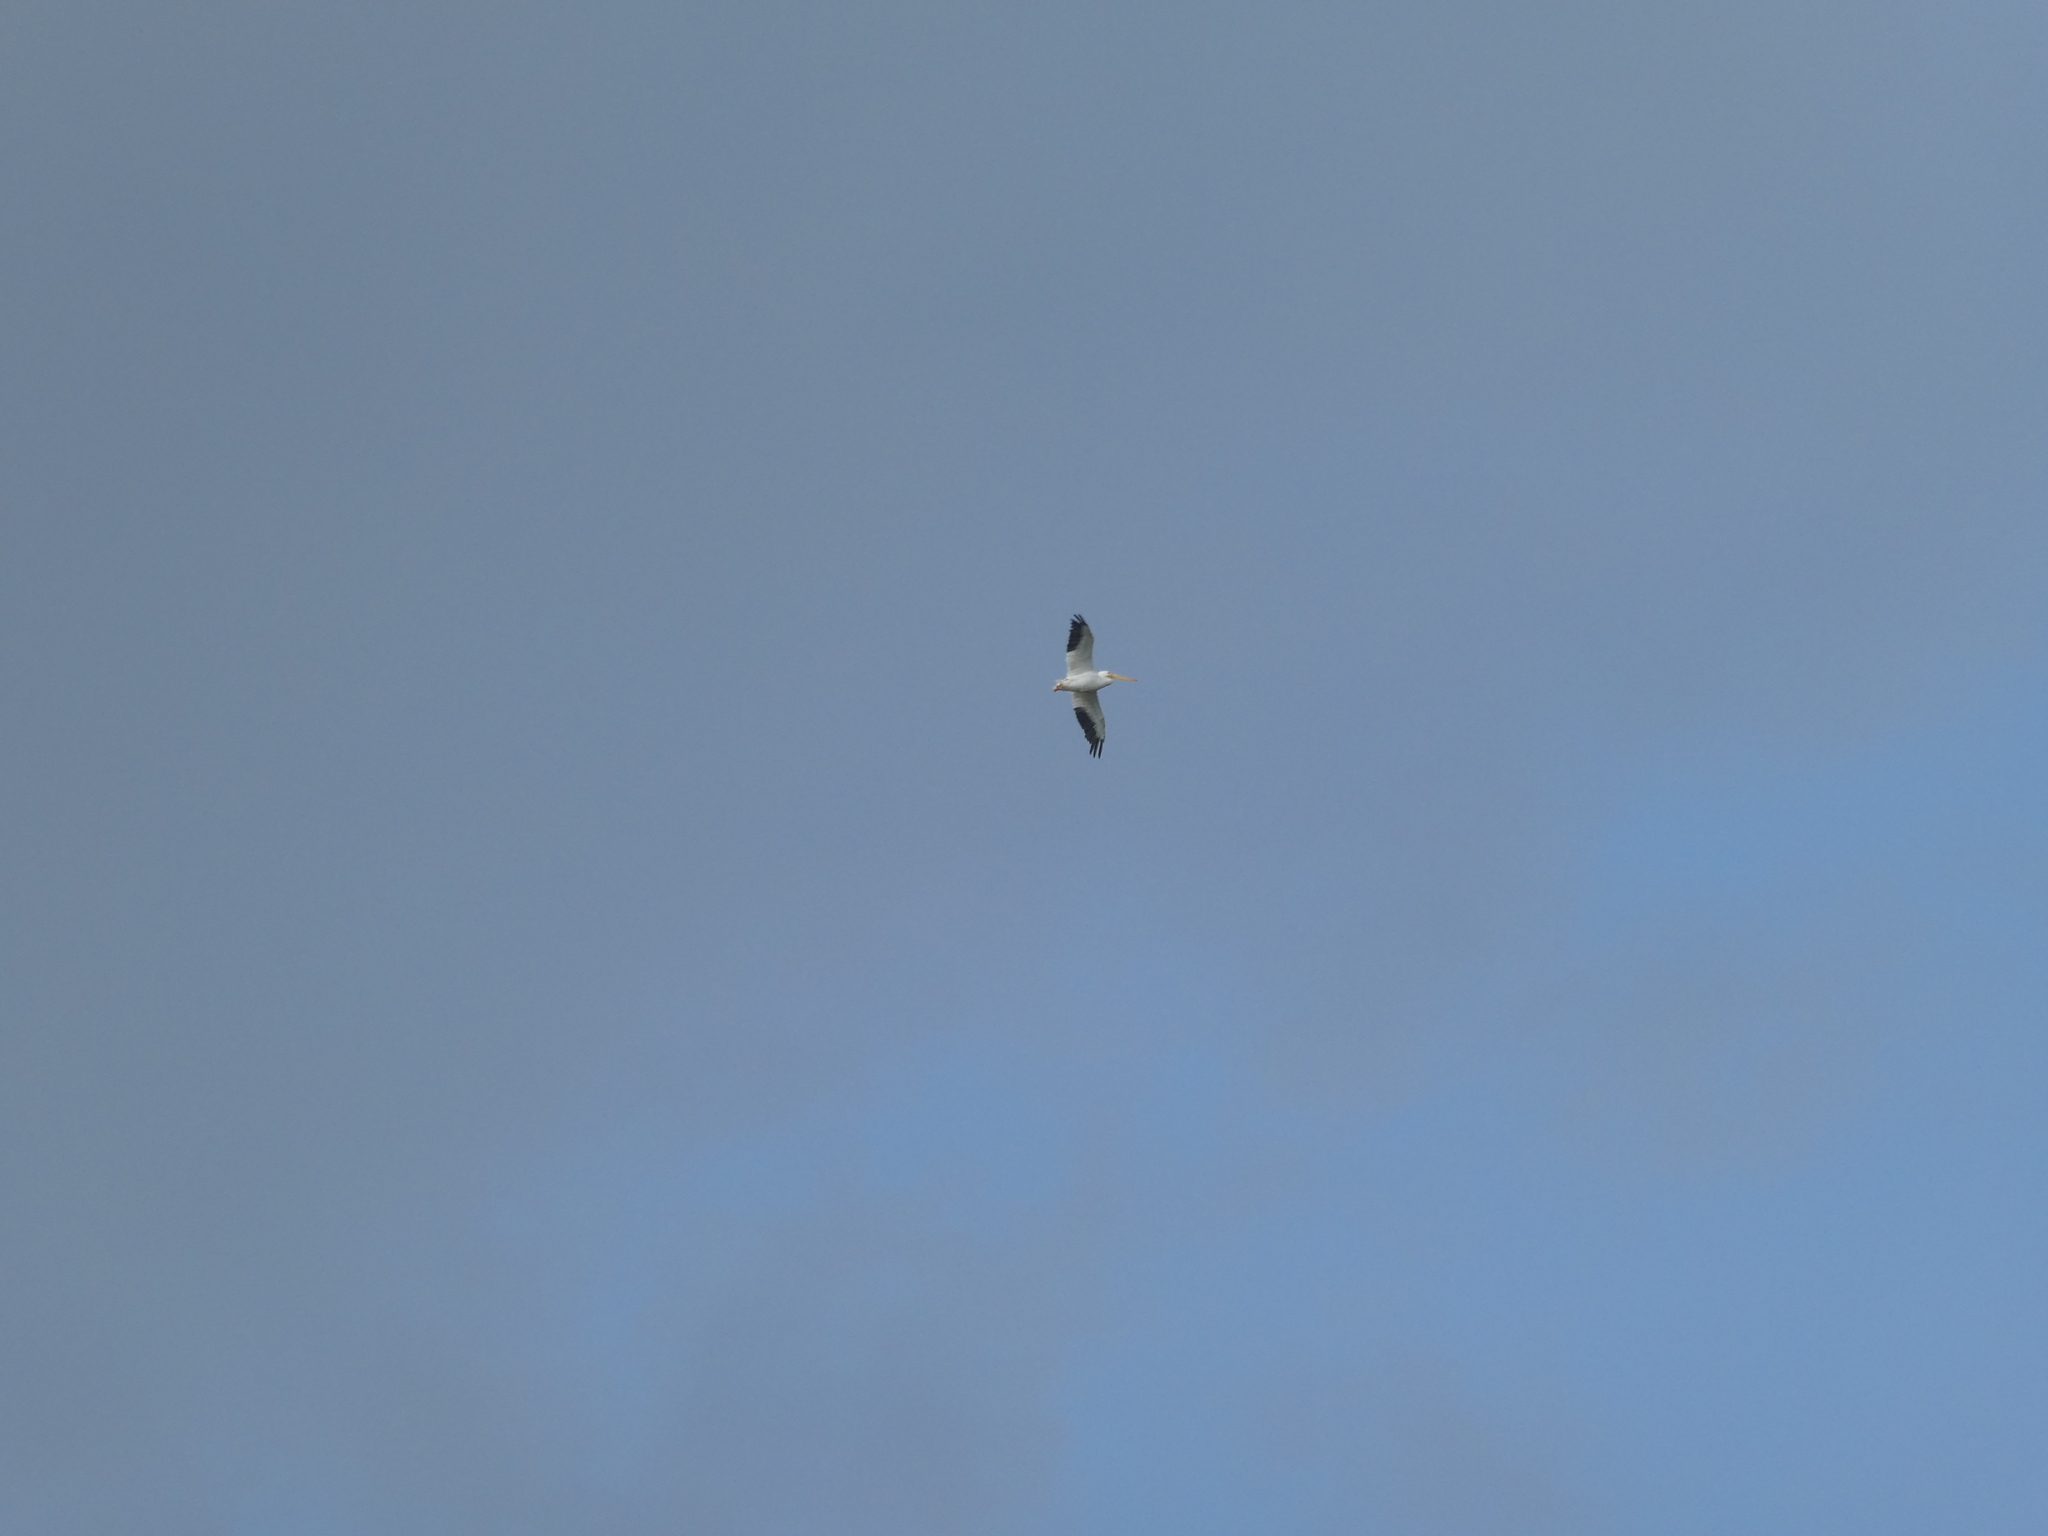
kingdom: Animalia
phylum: Chordata
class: Aves
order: Pelecaniformes
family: Pelecanidae
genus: Pelecanus
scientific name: Pelecanus erythrorhynchos
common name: American white pelican
